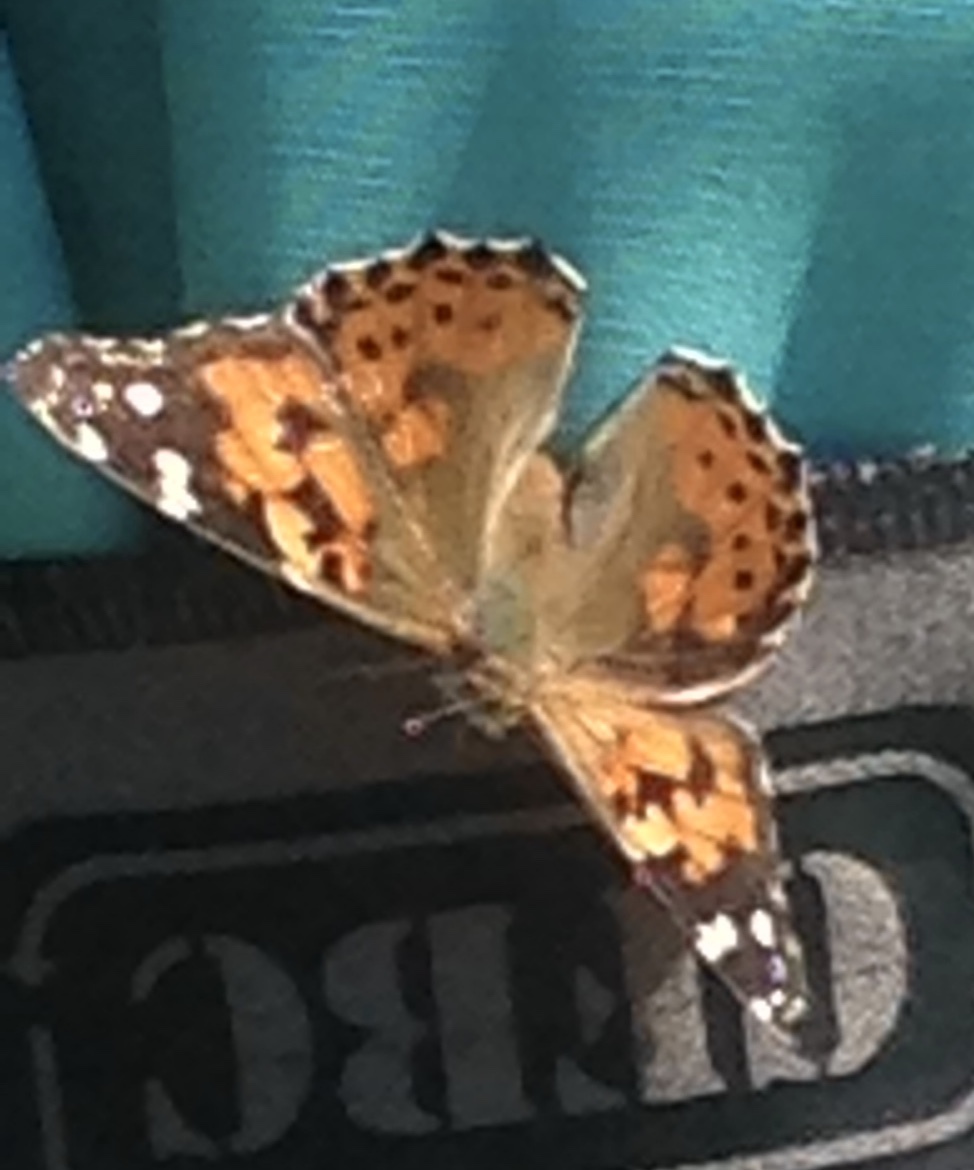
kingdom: Animalia
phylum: Arthropoda
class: Insecta
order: Lepidoptera
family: Nymphalidae
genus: Vanessa
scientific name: Vanessa cardui
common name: Painted lady
